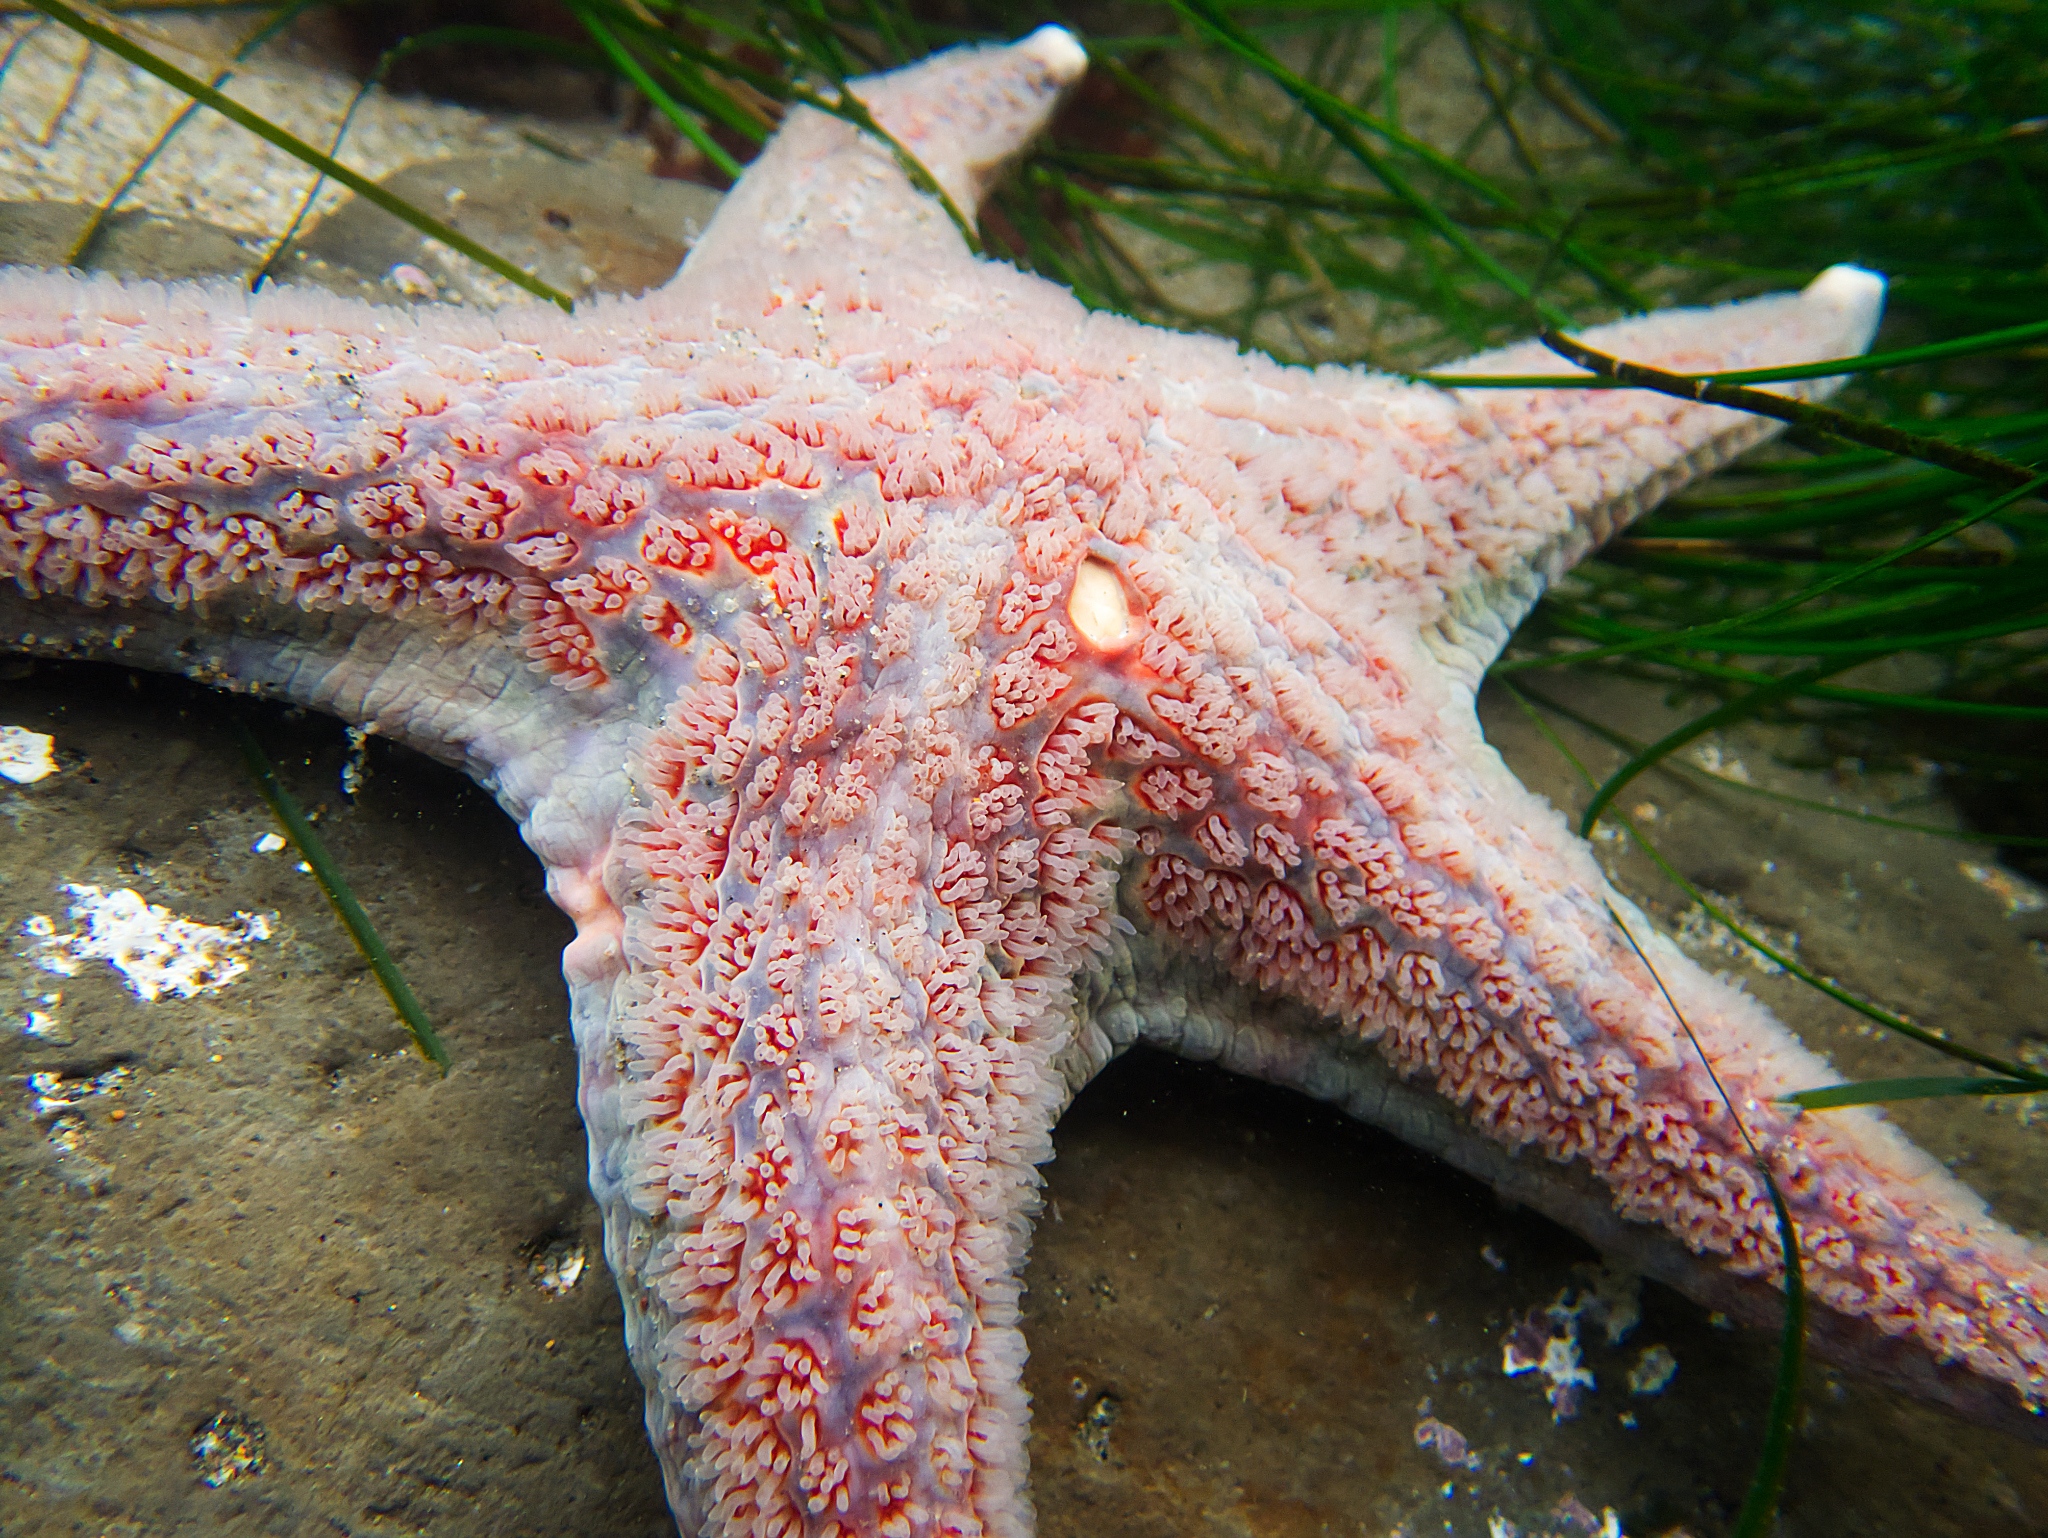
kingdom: Animalia
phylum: Echinodermata
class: Asteroidea
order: Valvatida
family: Asteropseidae
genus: Dermasterias
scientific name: Dermasterias imbricata
